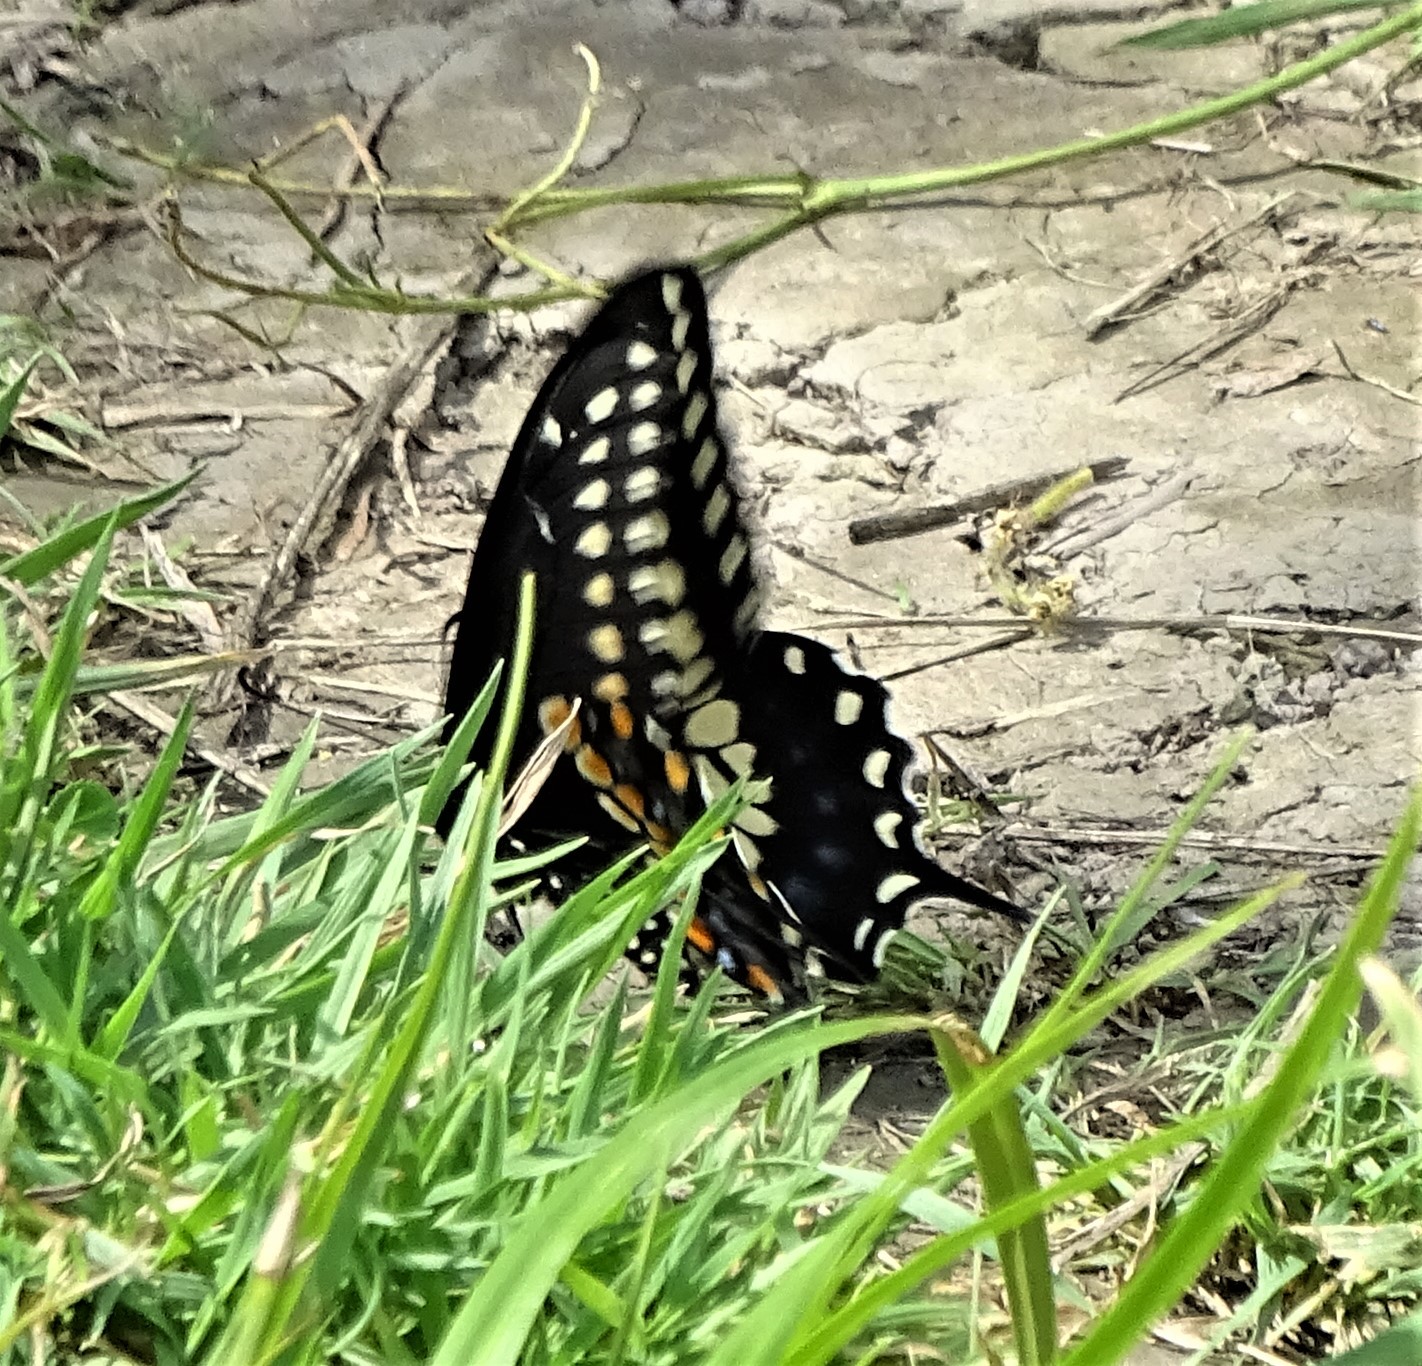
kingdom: Animalia
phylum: Arthropoda
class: Insecta
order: Lepidoptera
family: Papilionidae
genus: Papilio
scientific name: Papilio polyxenes
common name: Black swallowtail
